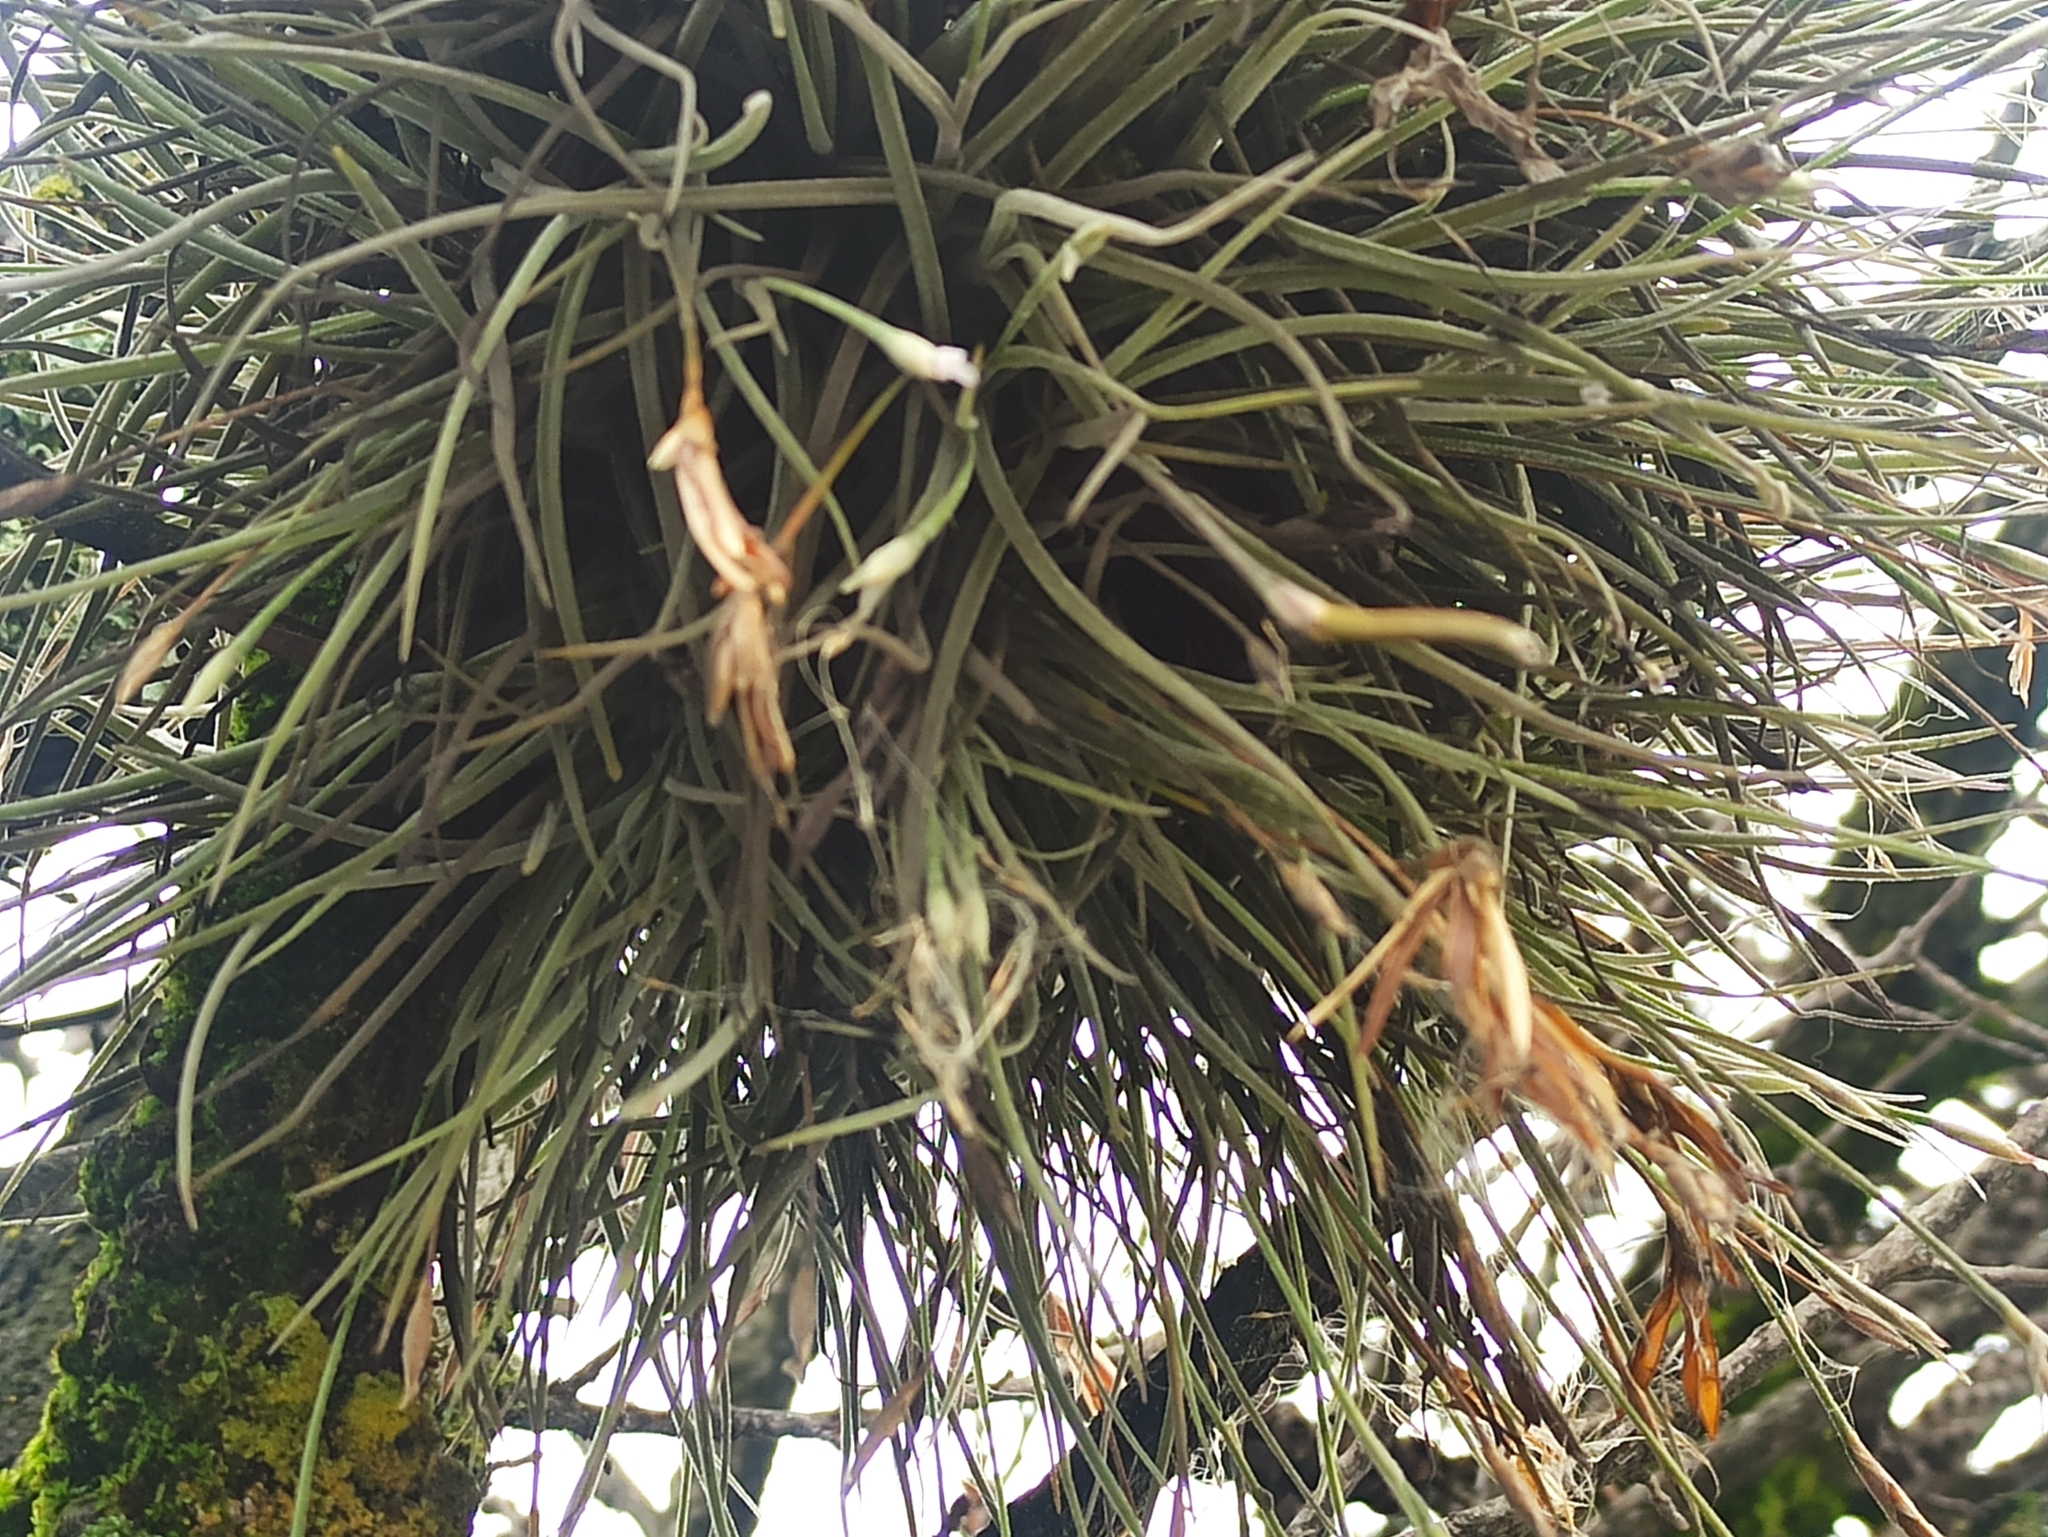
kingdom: Plantae
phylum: Tracheophyta
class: Liliopsida
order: Poales
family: Bromeliaceae
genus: Tillandsia
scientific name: Tillandsia recurvata
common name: Small ballmoss
